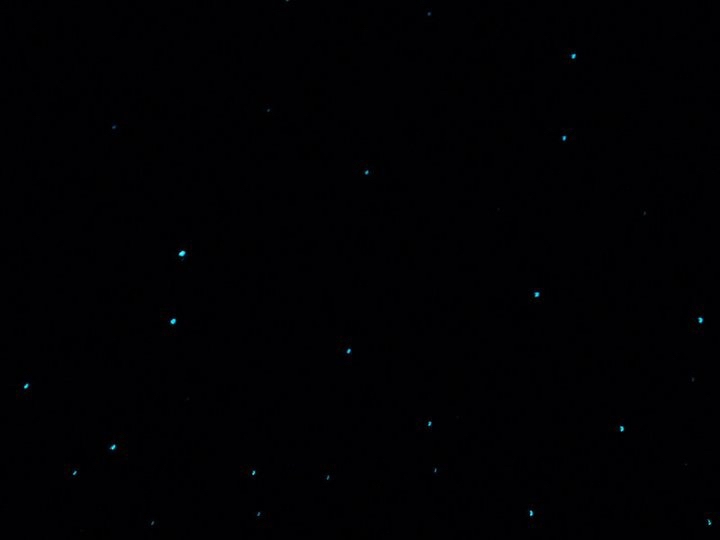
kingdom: Animalia
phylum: Arthropoda
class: Insecta
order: Diptera
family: Keroplatidae
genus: Arachnocampa
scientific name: Arachnocampa luminosa
